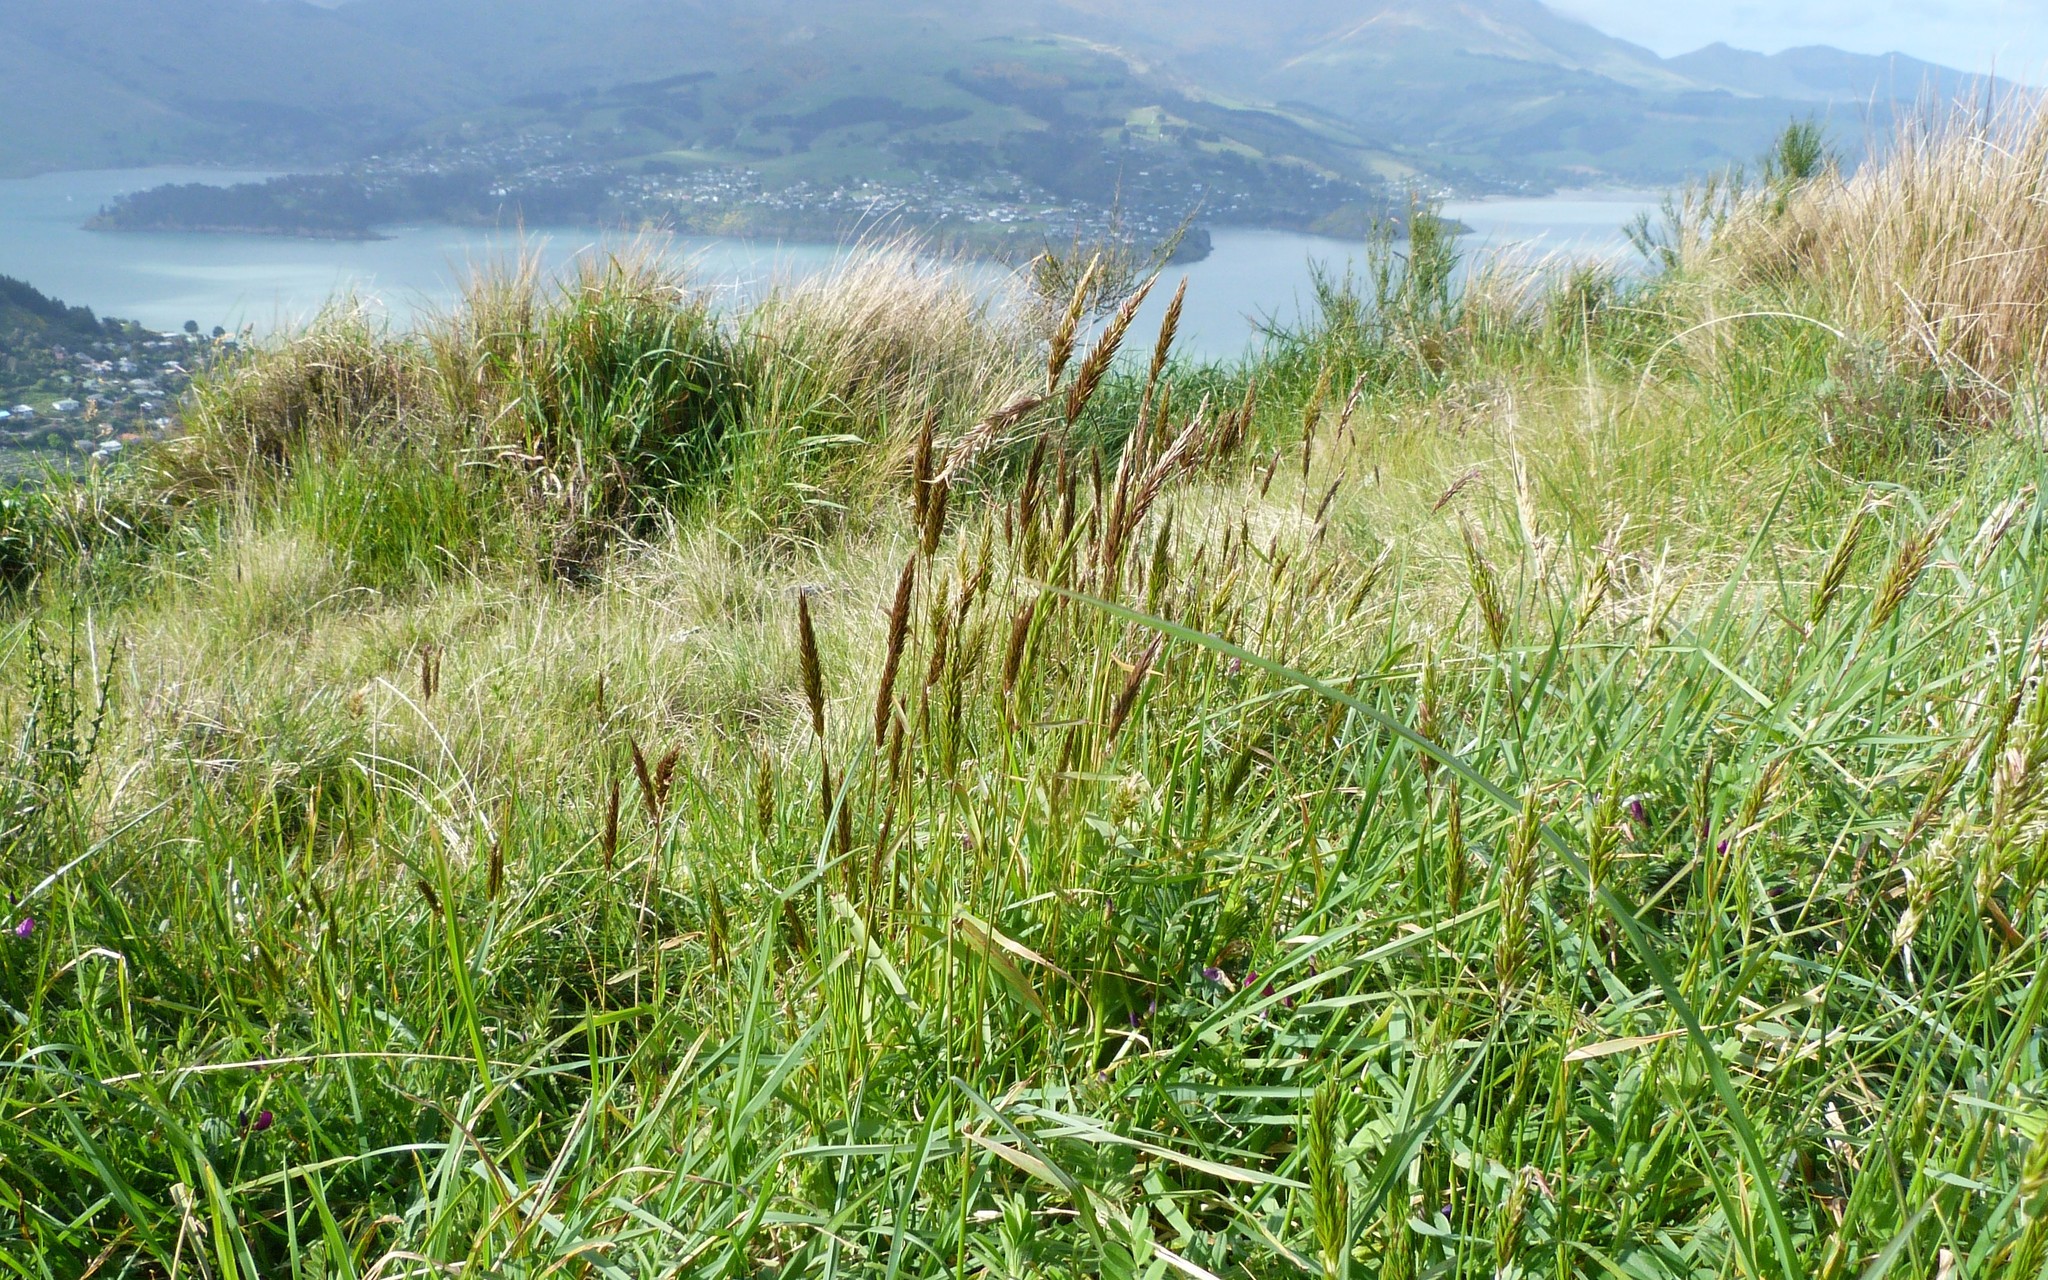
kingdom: Plantae
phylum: Tracheophyta
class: Liliopsida
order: Poales
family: Poaceae
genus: Anthoxanthum
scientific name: Anthoxanthum odoratum
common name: Sweet vernalgrass
